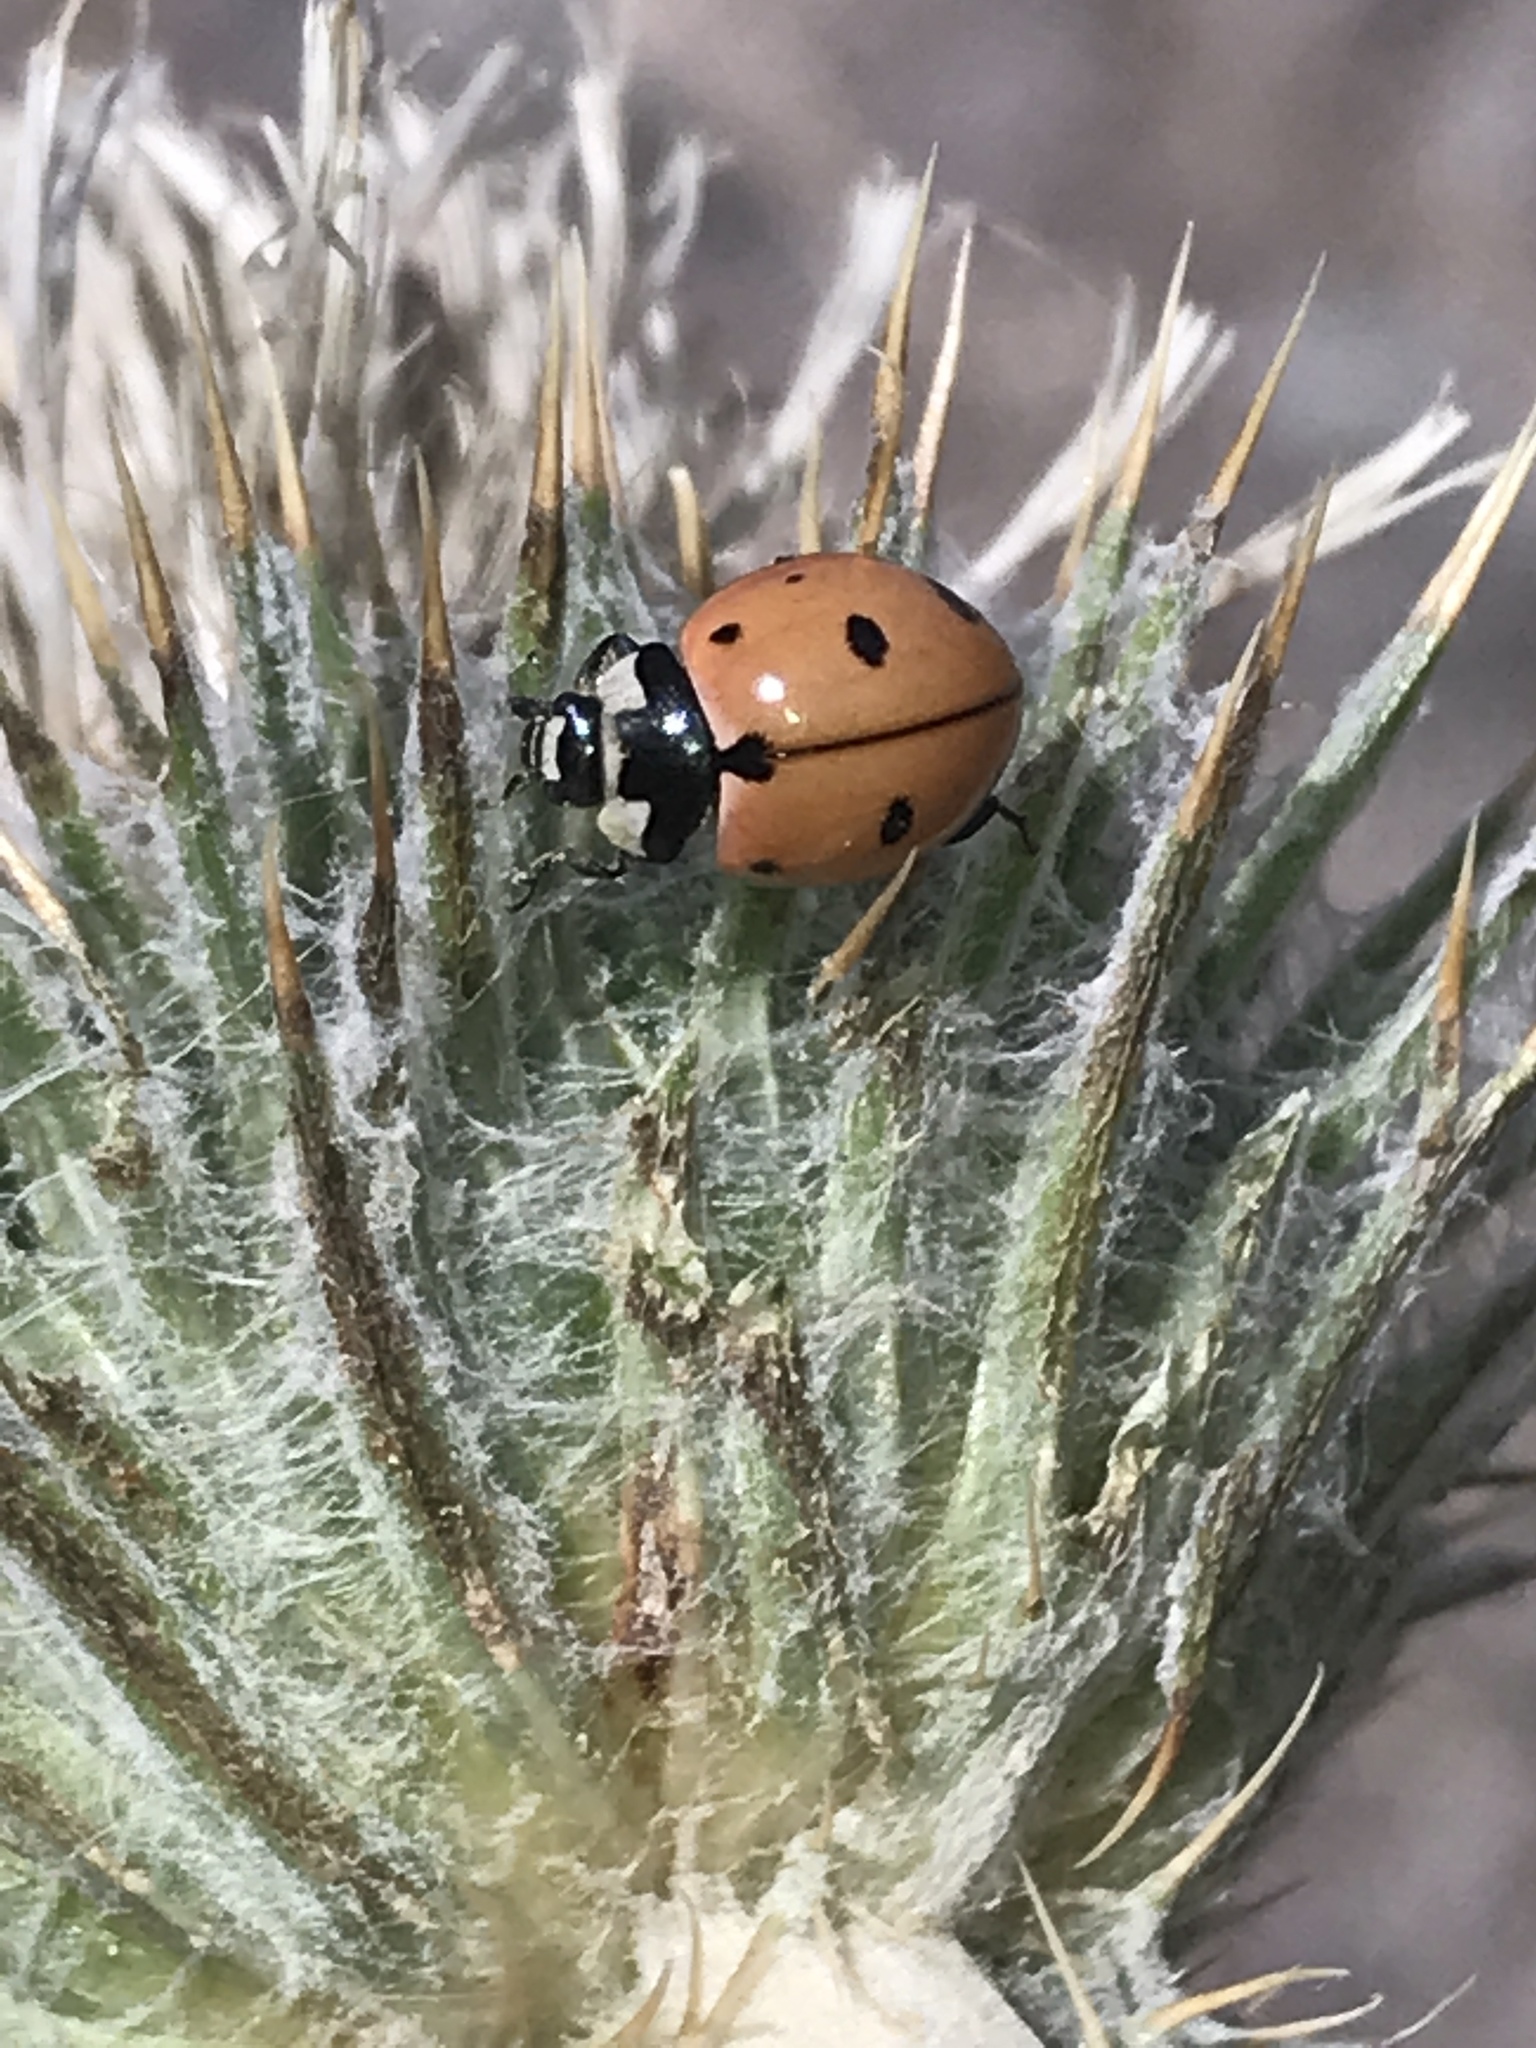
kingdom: Animalia
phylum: Arthropoda
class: Insecta
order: Coleoptera
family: Coccinellidae
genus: Coccinella
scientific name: Coccinella novemnotata
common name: Nine-spotted lady beetle
